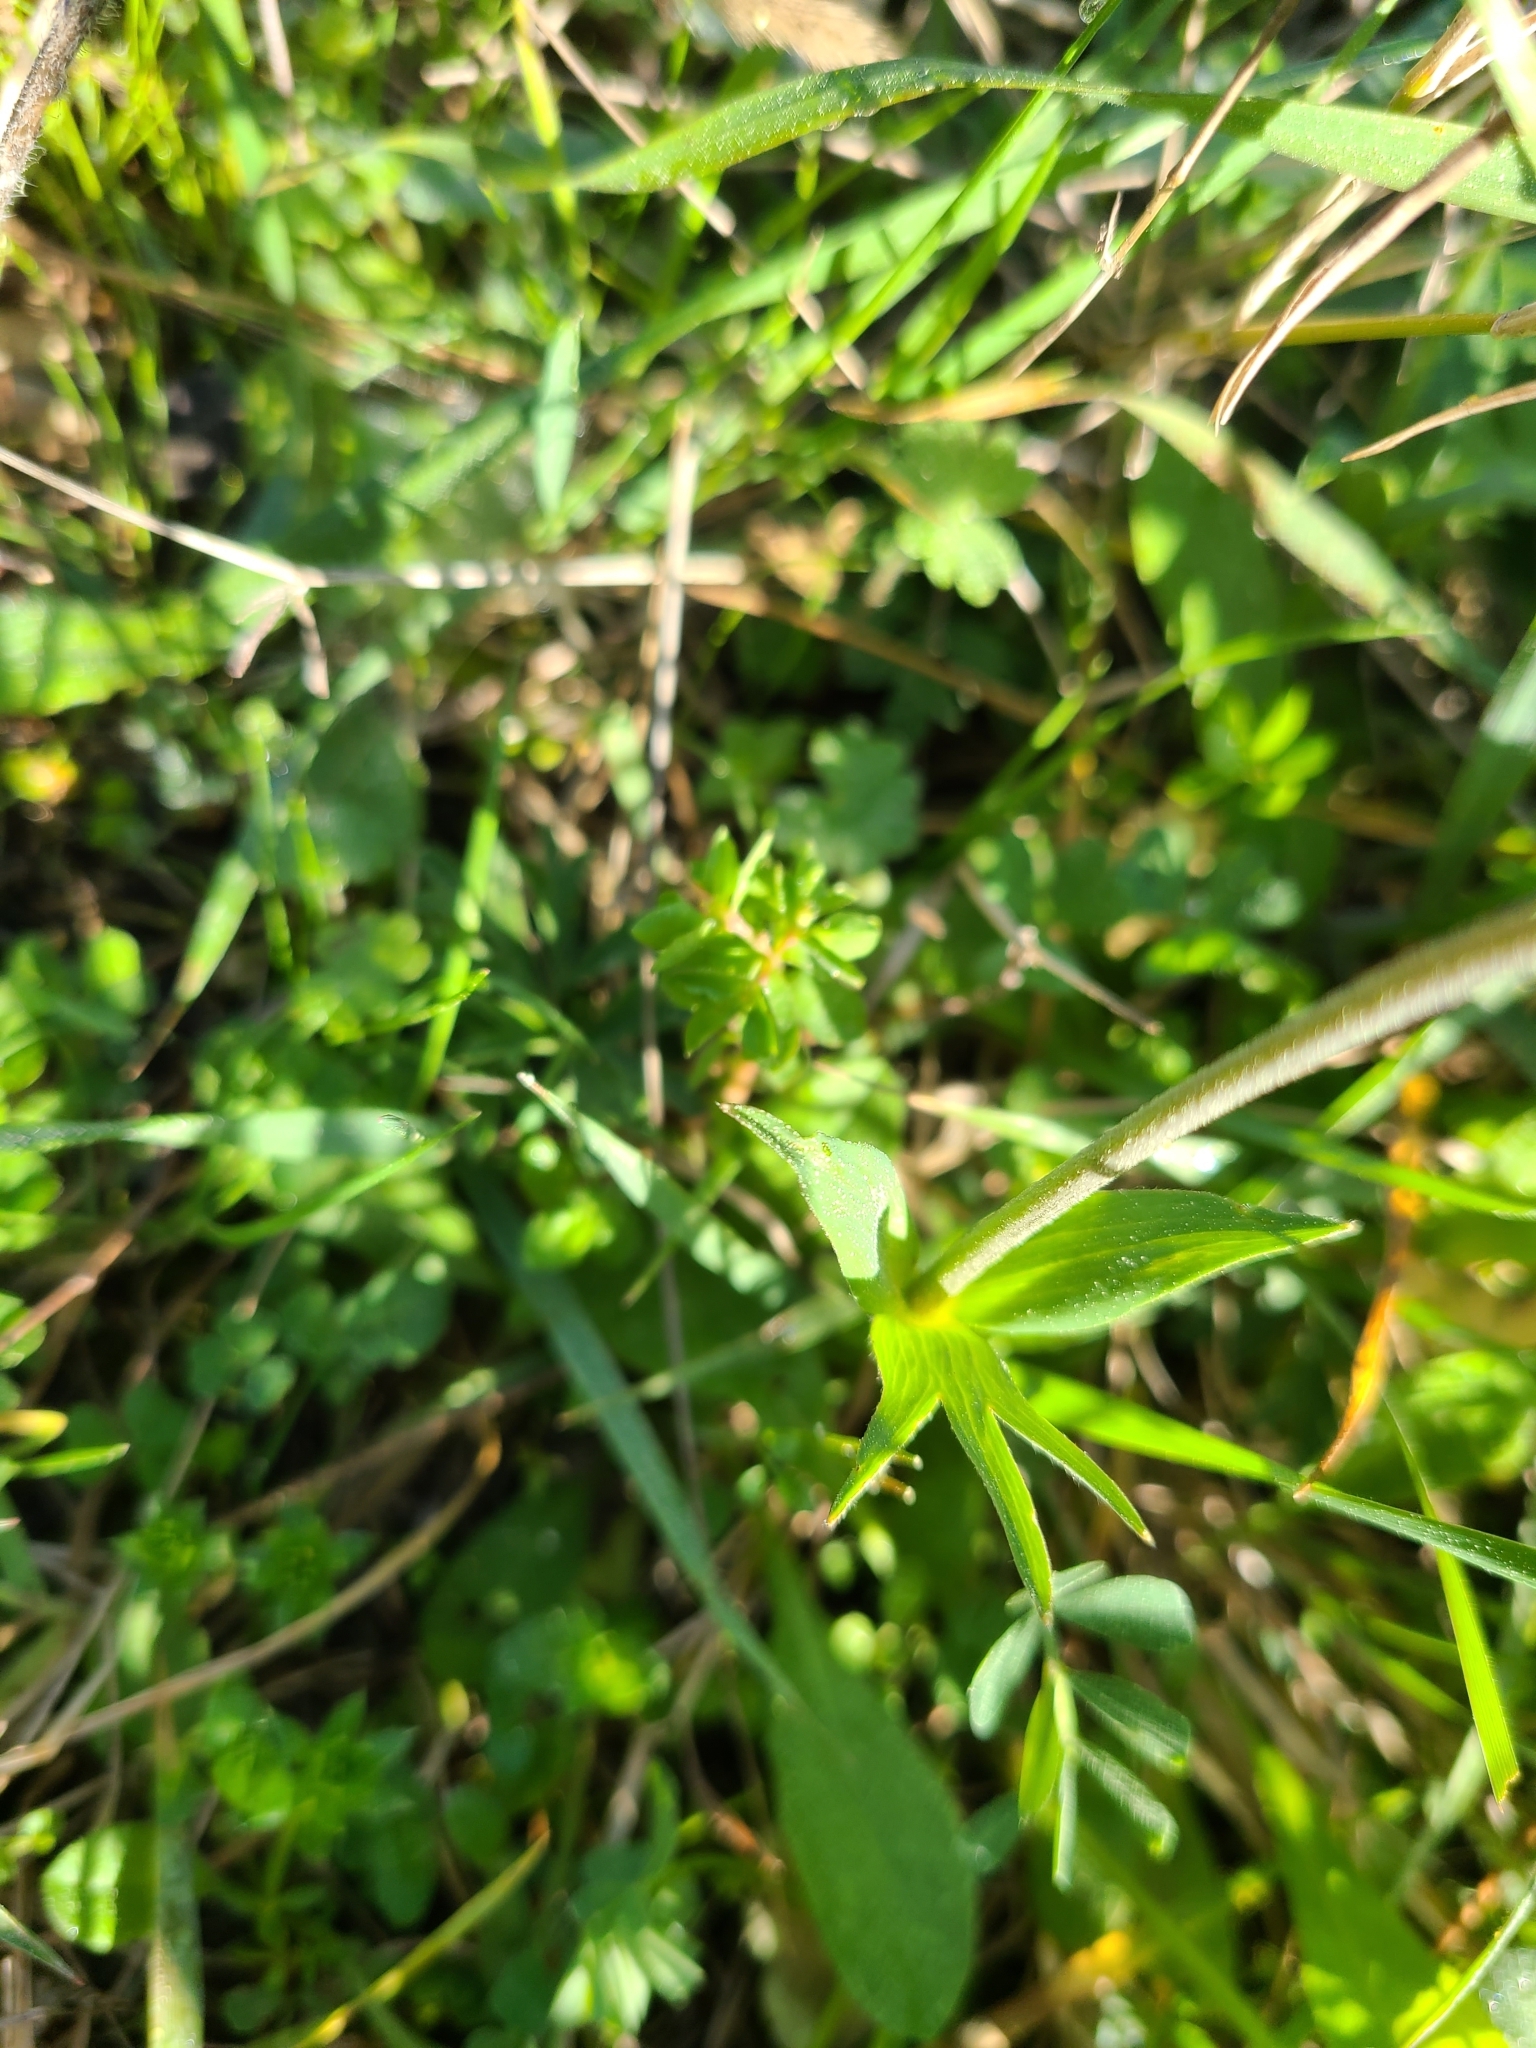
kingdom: Plantae
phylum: Tracheophyta
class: Magnoliopsida
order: Ranunculales
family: Ranunculaceae
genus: Anemone
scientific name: Anemone hortensis
